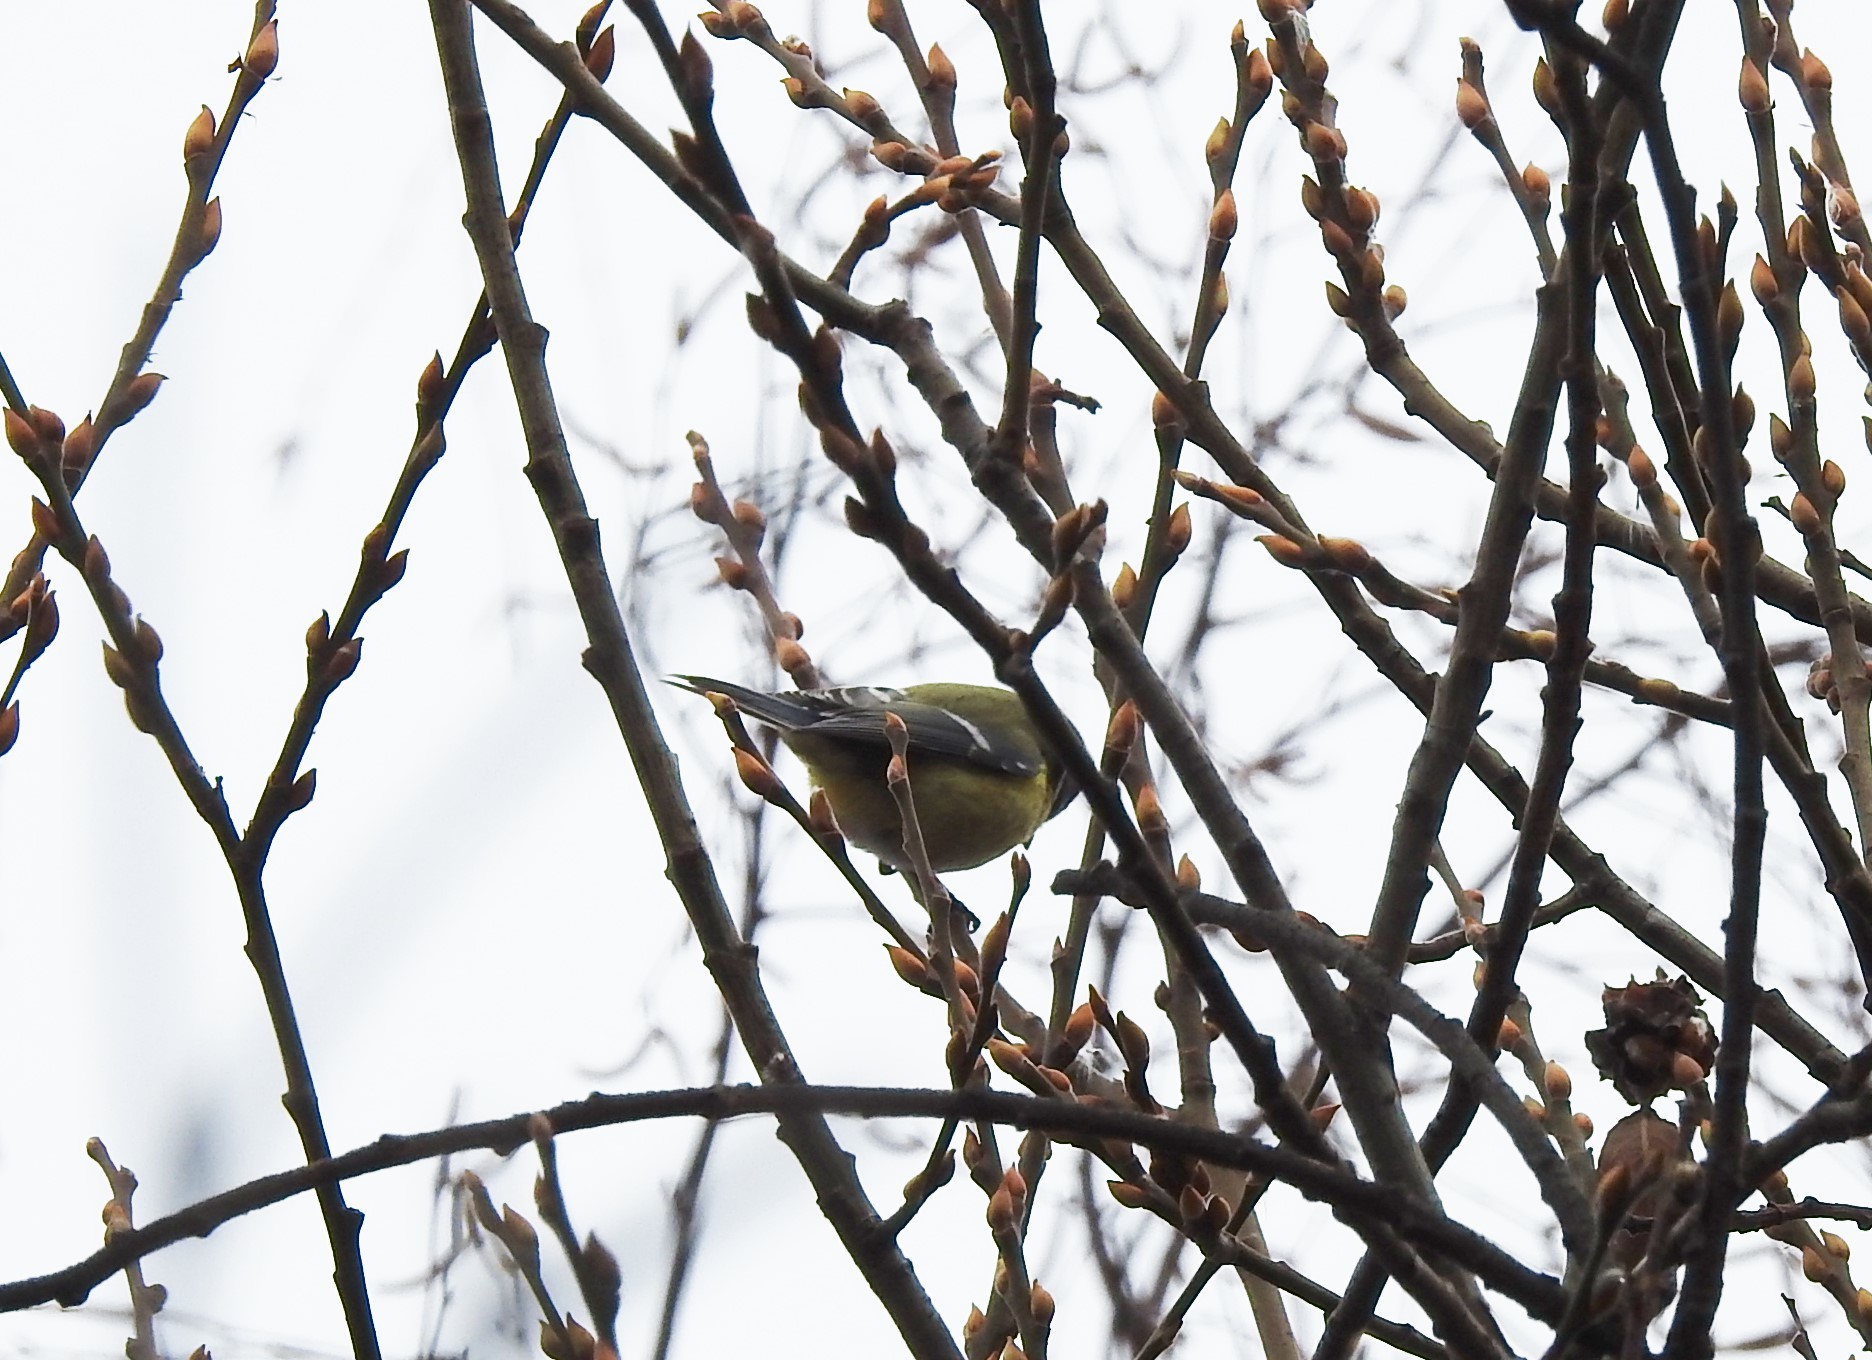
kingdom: Animalia
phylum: Chordata
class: Aves
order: Passeriformes
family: Paridae
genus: Parus
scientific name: Parus major
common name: Great tit
